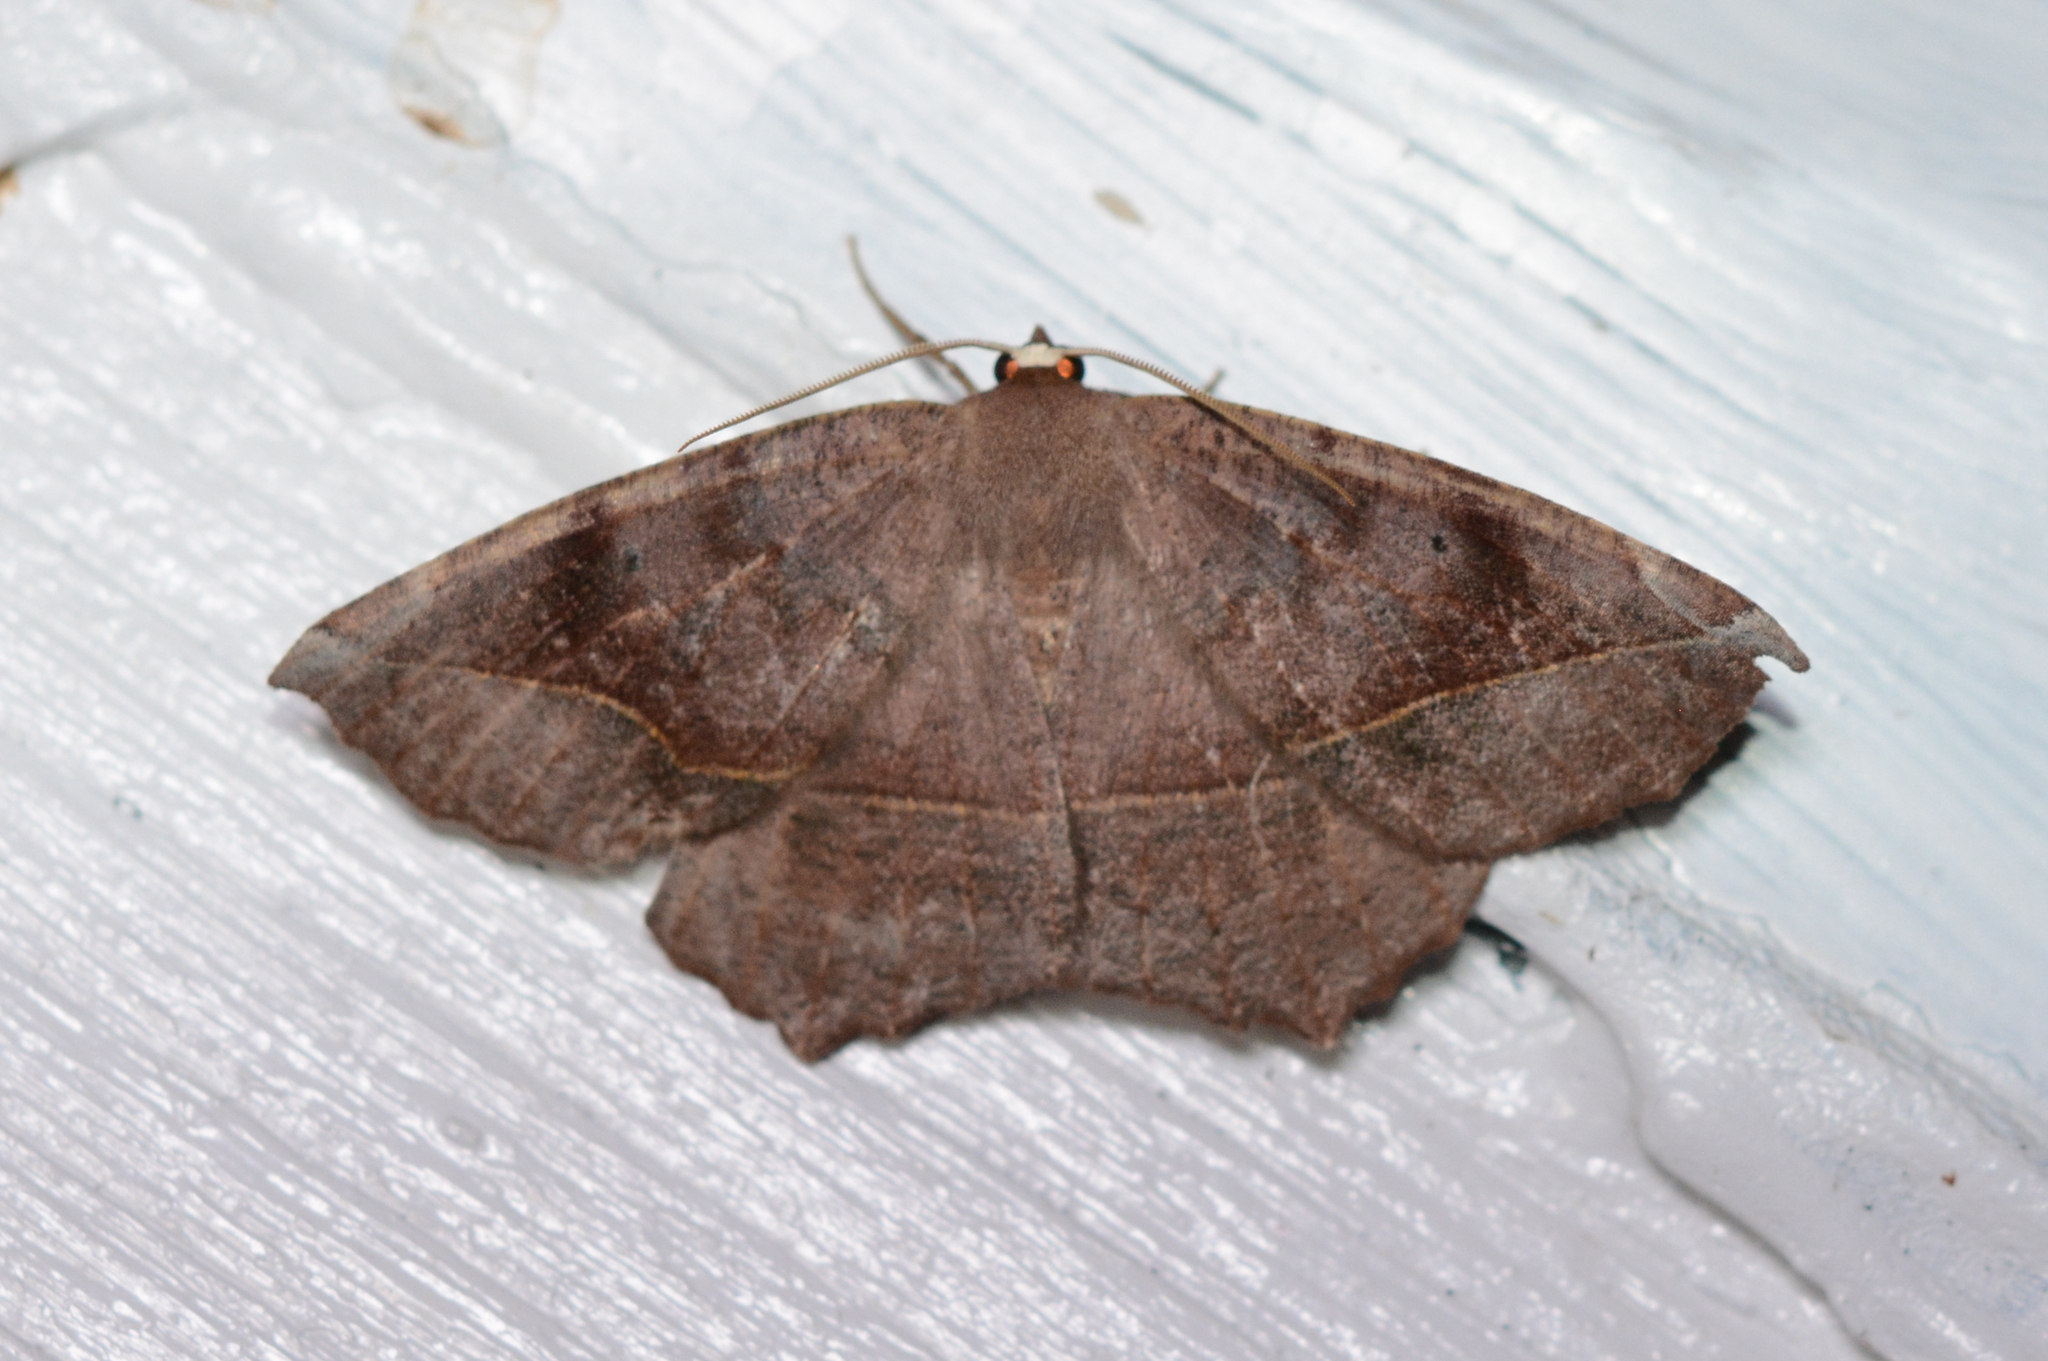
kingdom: Animalia
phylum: Arthropoda
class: Insecta
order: Lepidoptera
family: Geometridae
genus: Eutrapela
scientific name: Eutrapela clemataria
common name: Curved-toothed geometer
